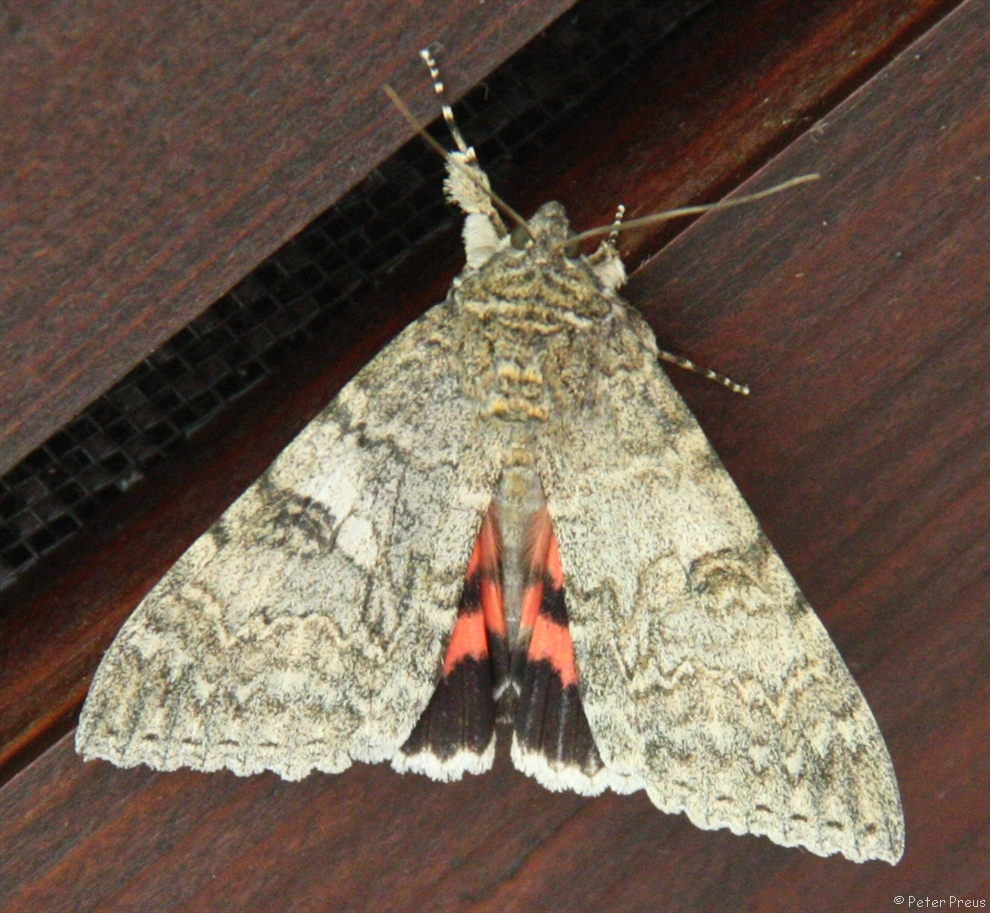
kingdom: Animalia
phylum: Arthropoda
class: Insecta
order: Lepidoptera
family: Erebidae
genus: Catocala
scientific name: Catocala nupta
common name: Red underwing
